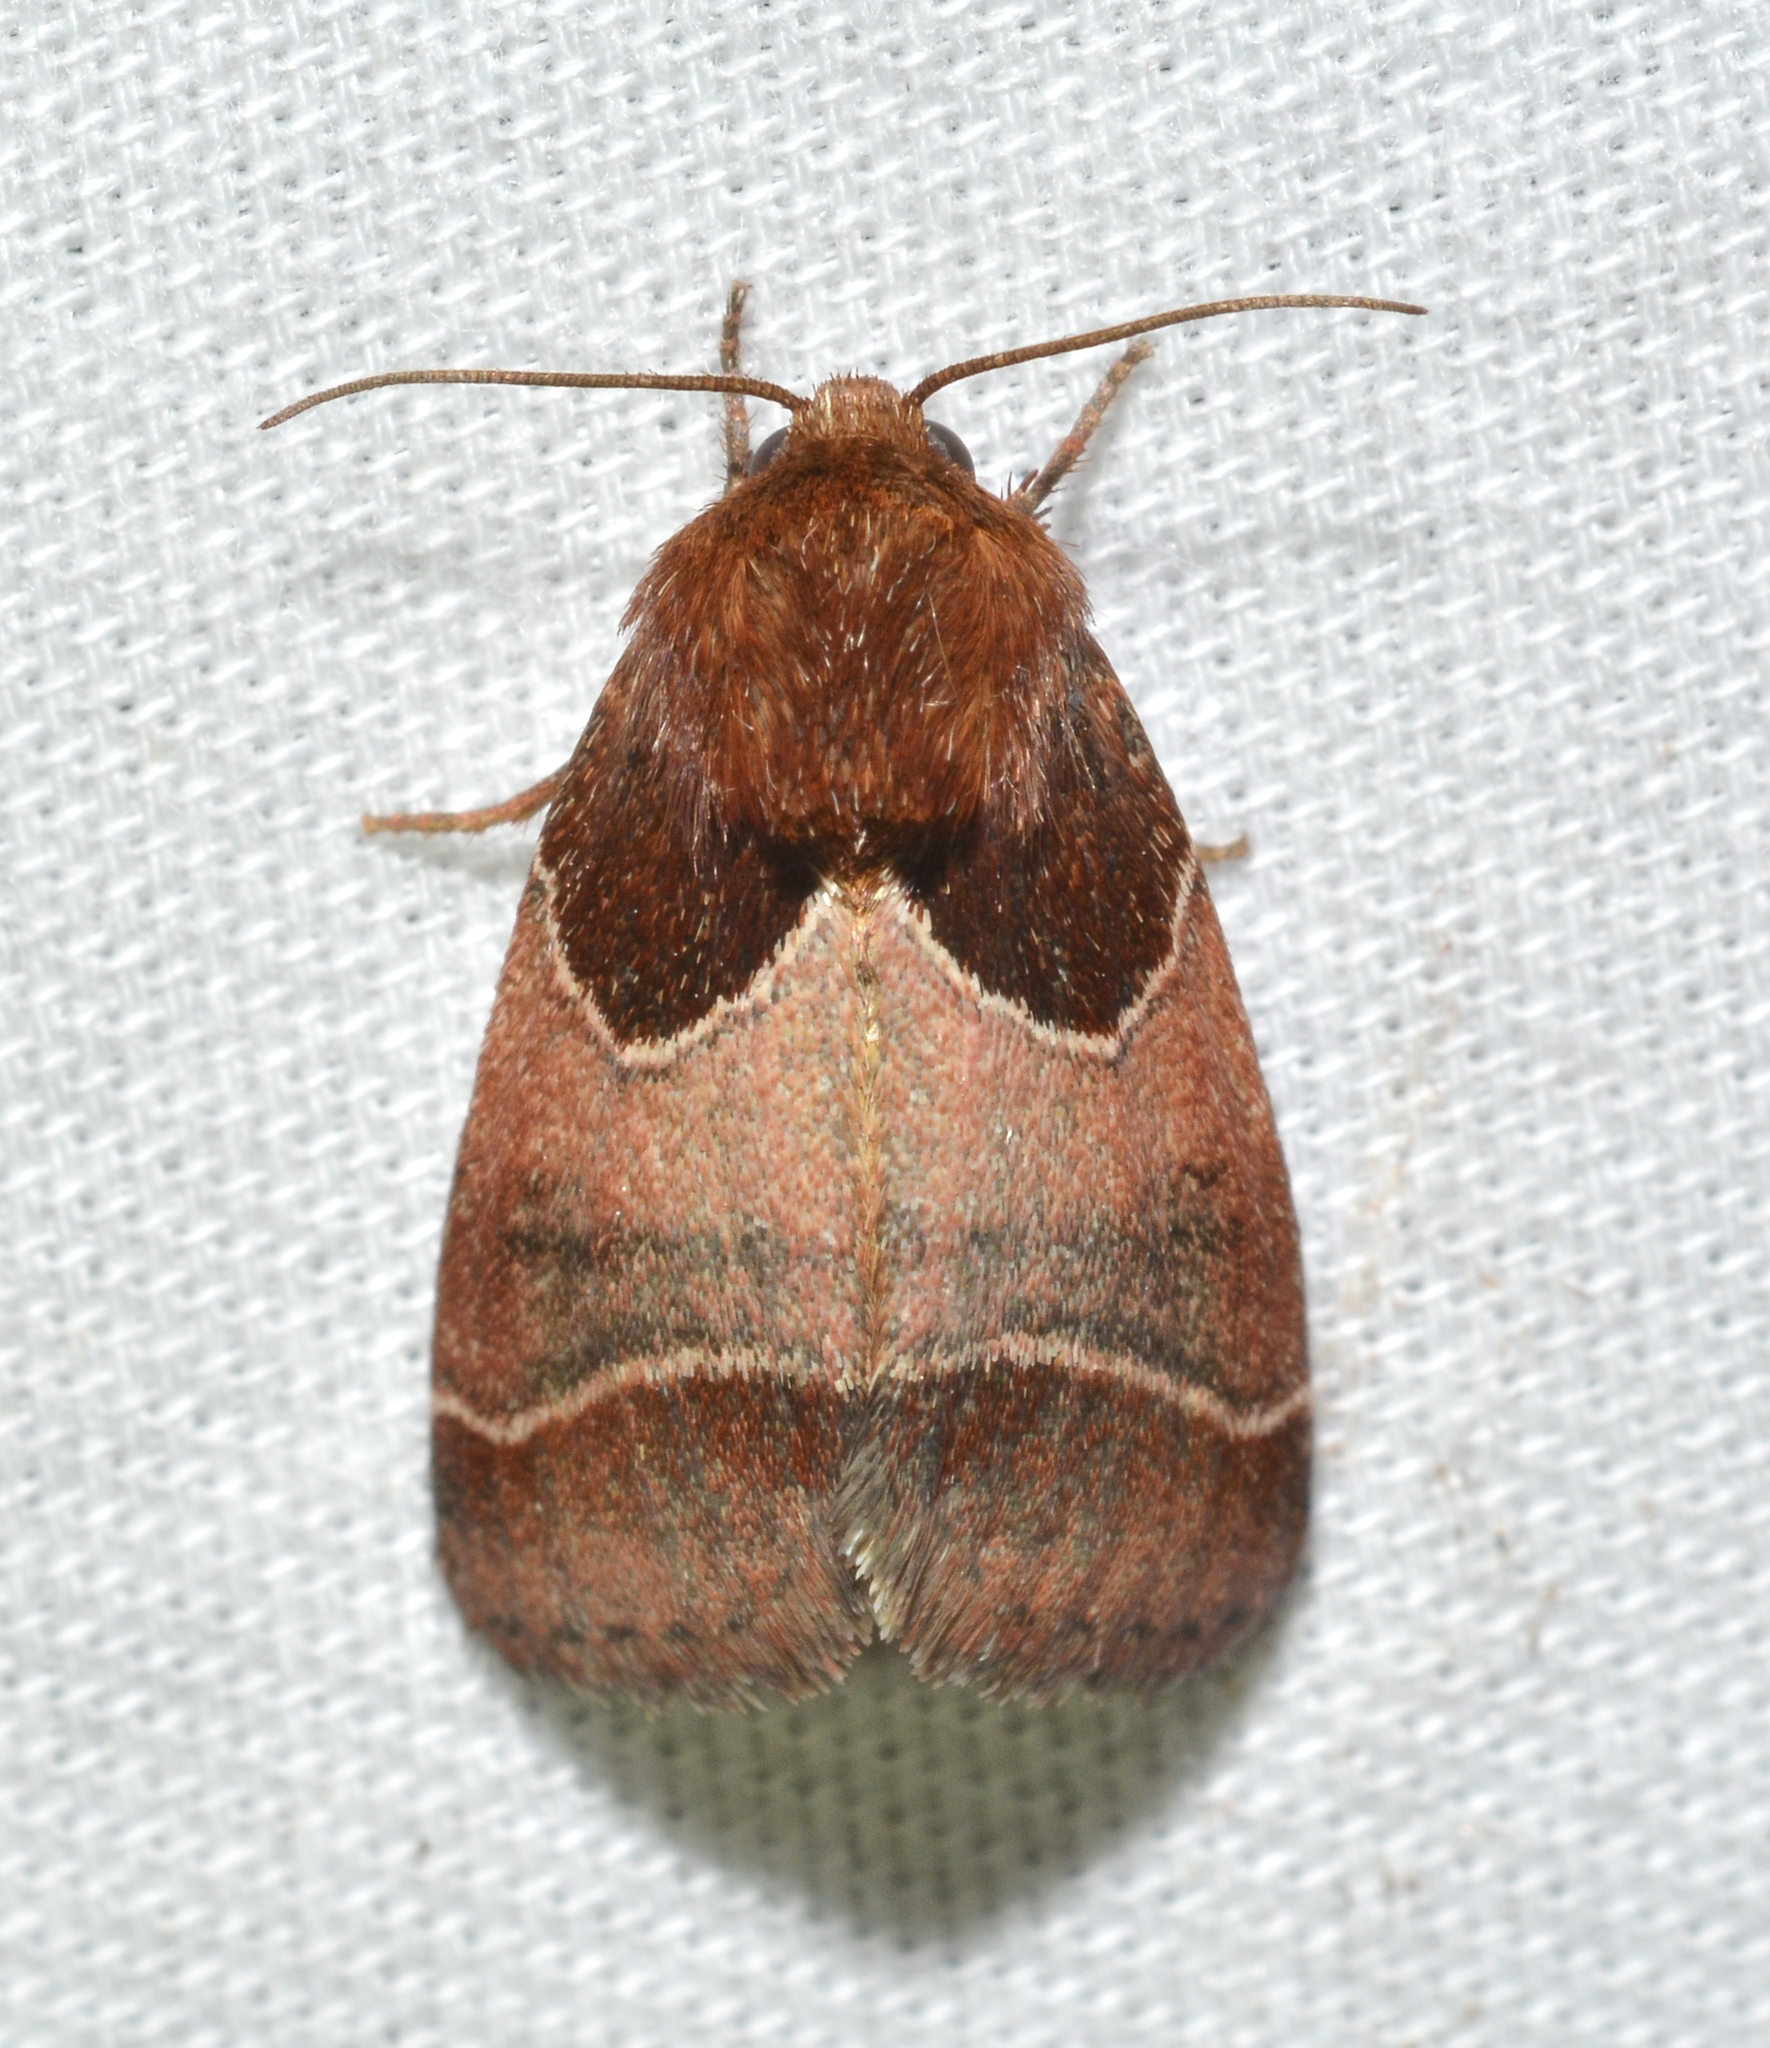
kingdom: Animalia
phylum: Arthropoda
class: Insecta
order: Lepidoptera
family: Noctuidae
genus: Schinia
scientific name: Schinia arcigera
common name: Arcigera flower moth
